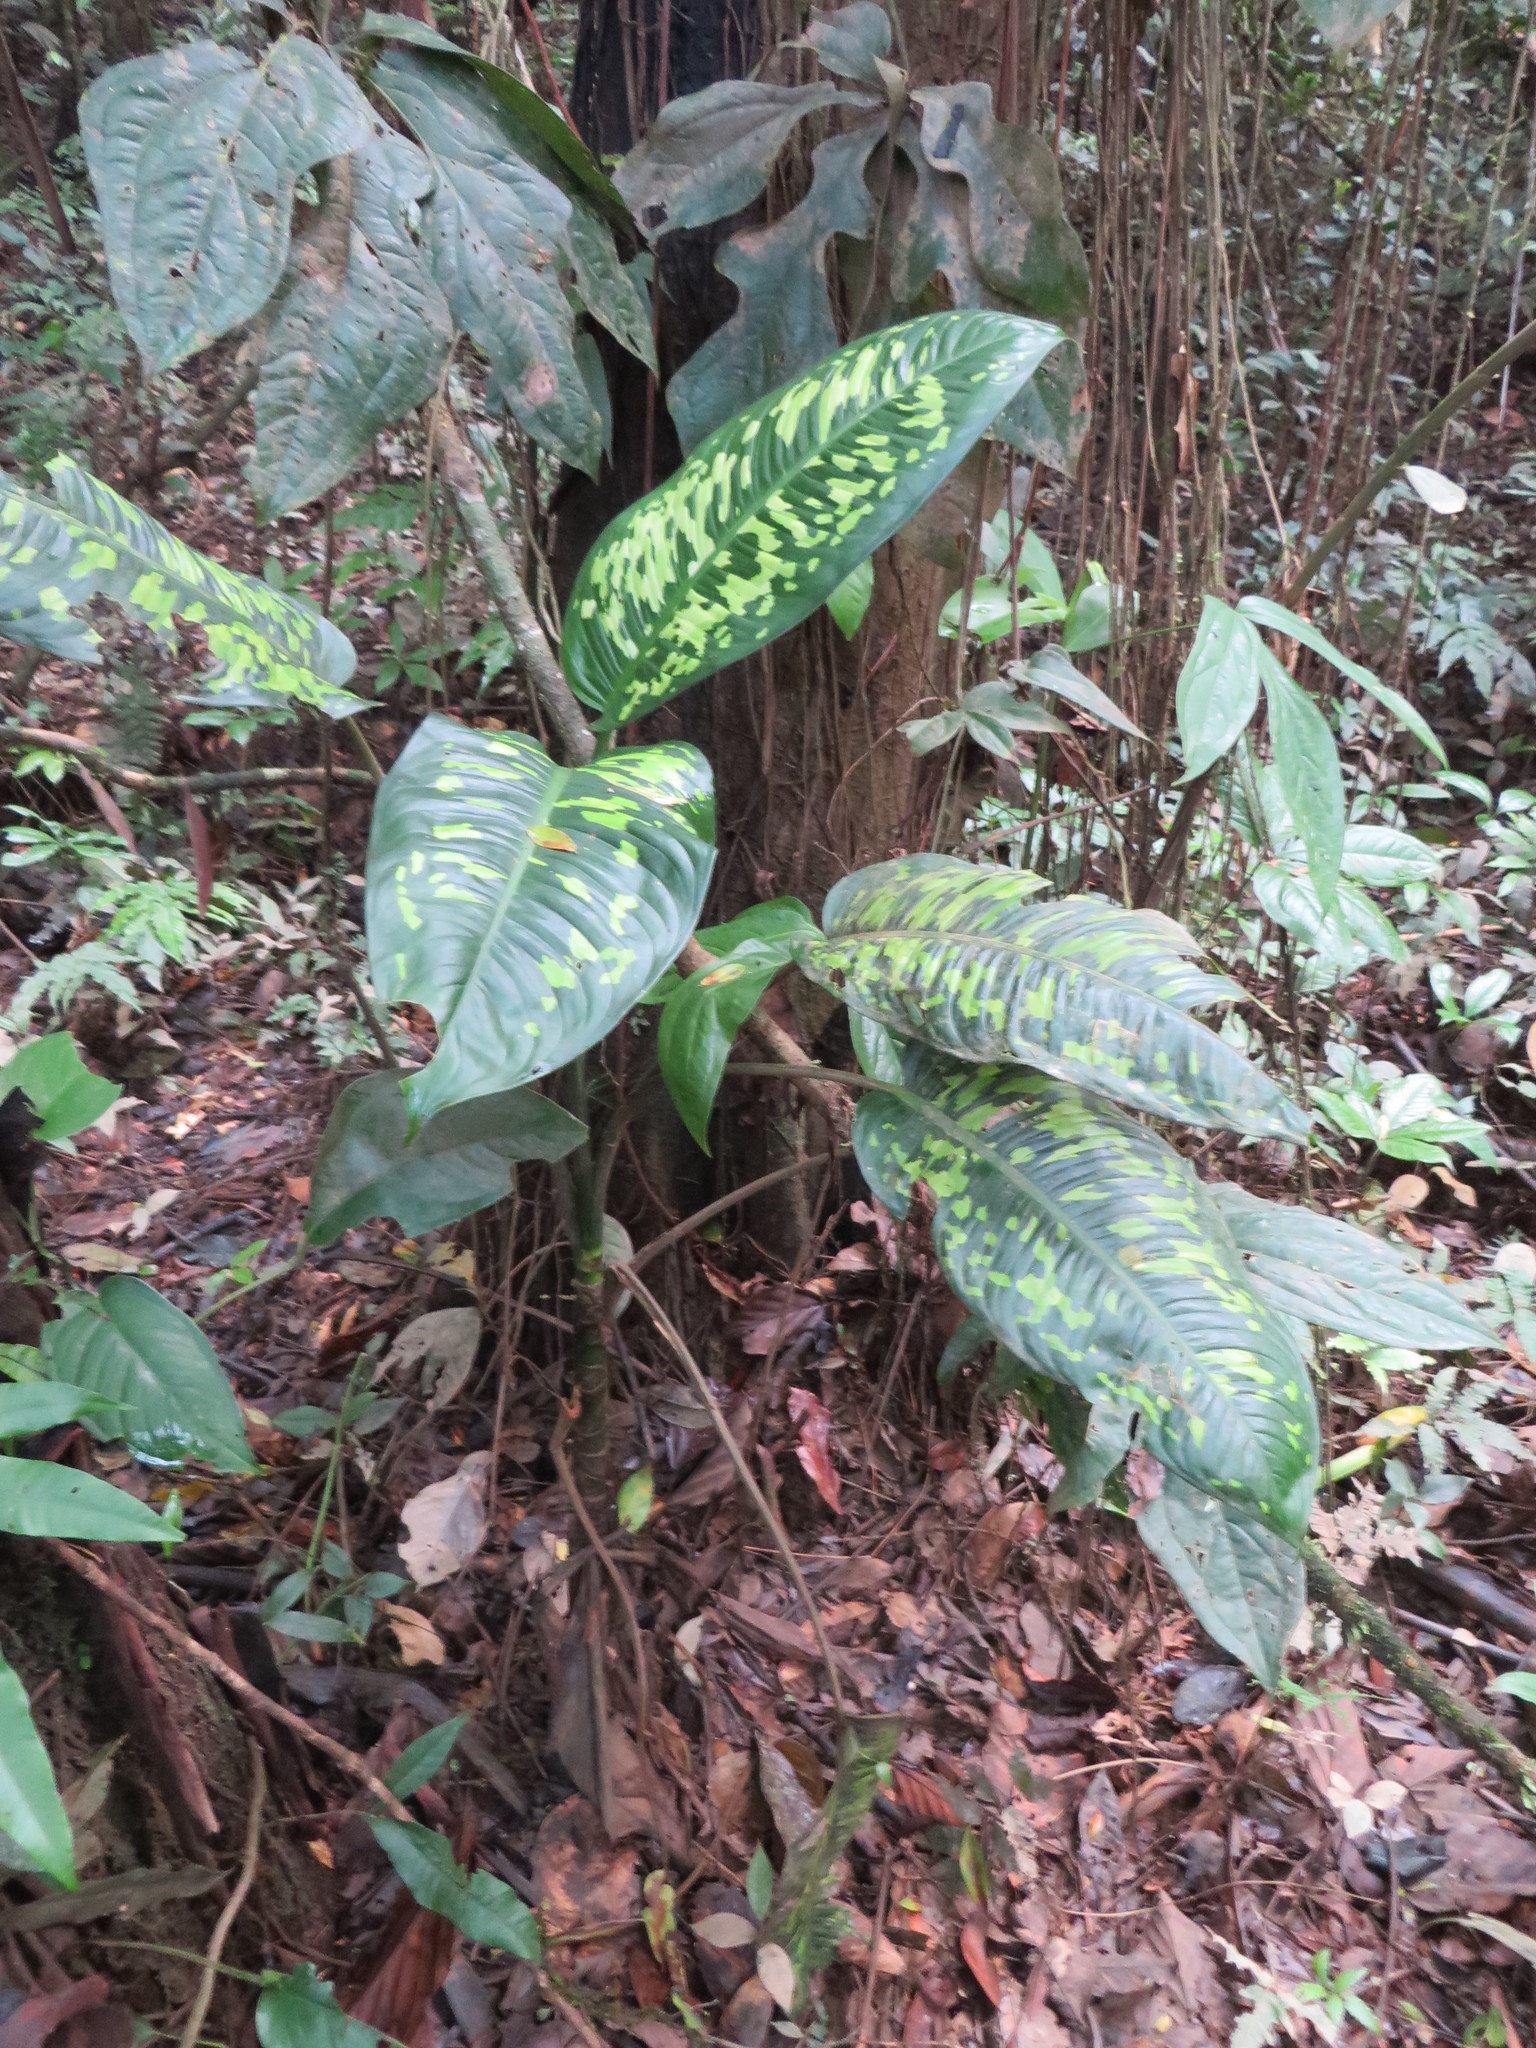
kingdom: Plantae
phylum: Tracheophyta
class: Liliopsida
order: Alismatales
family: Araceae
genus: Dieffenbachia
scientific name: Dieffenbachia seguine
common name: Dumbcane
